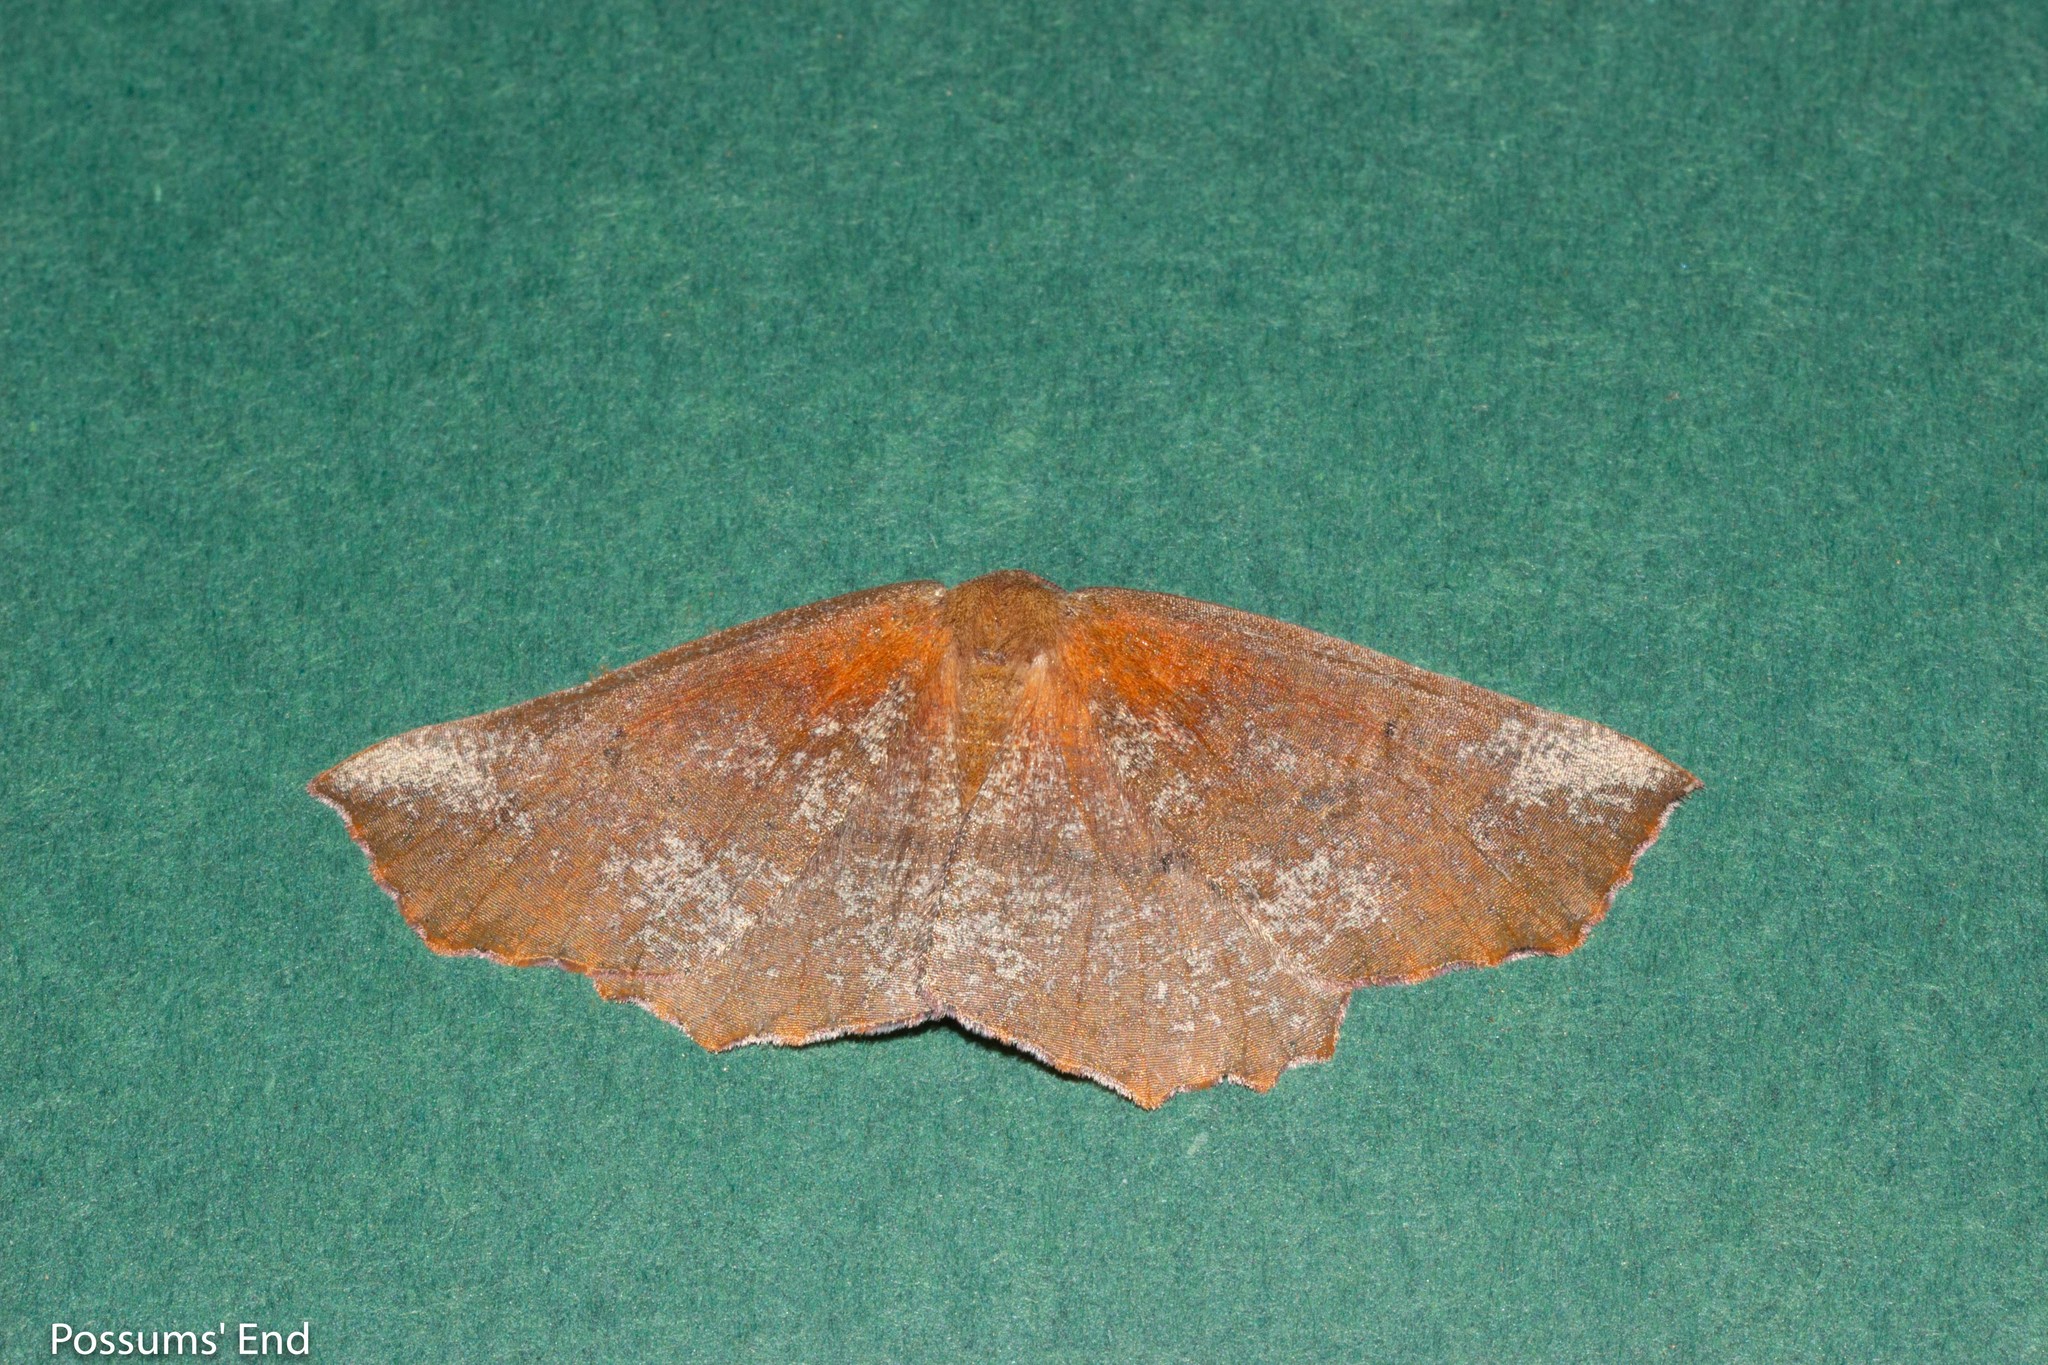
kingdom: Animalia
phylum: Arthropoda
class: Insecta
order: Lepidoptera
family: Geometridae
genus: Xyridacma
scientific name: Xyridacma ustaria
